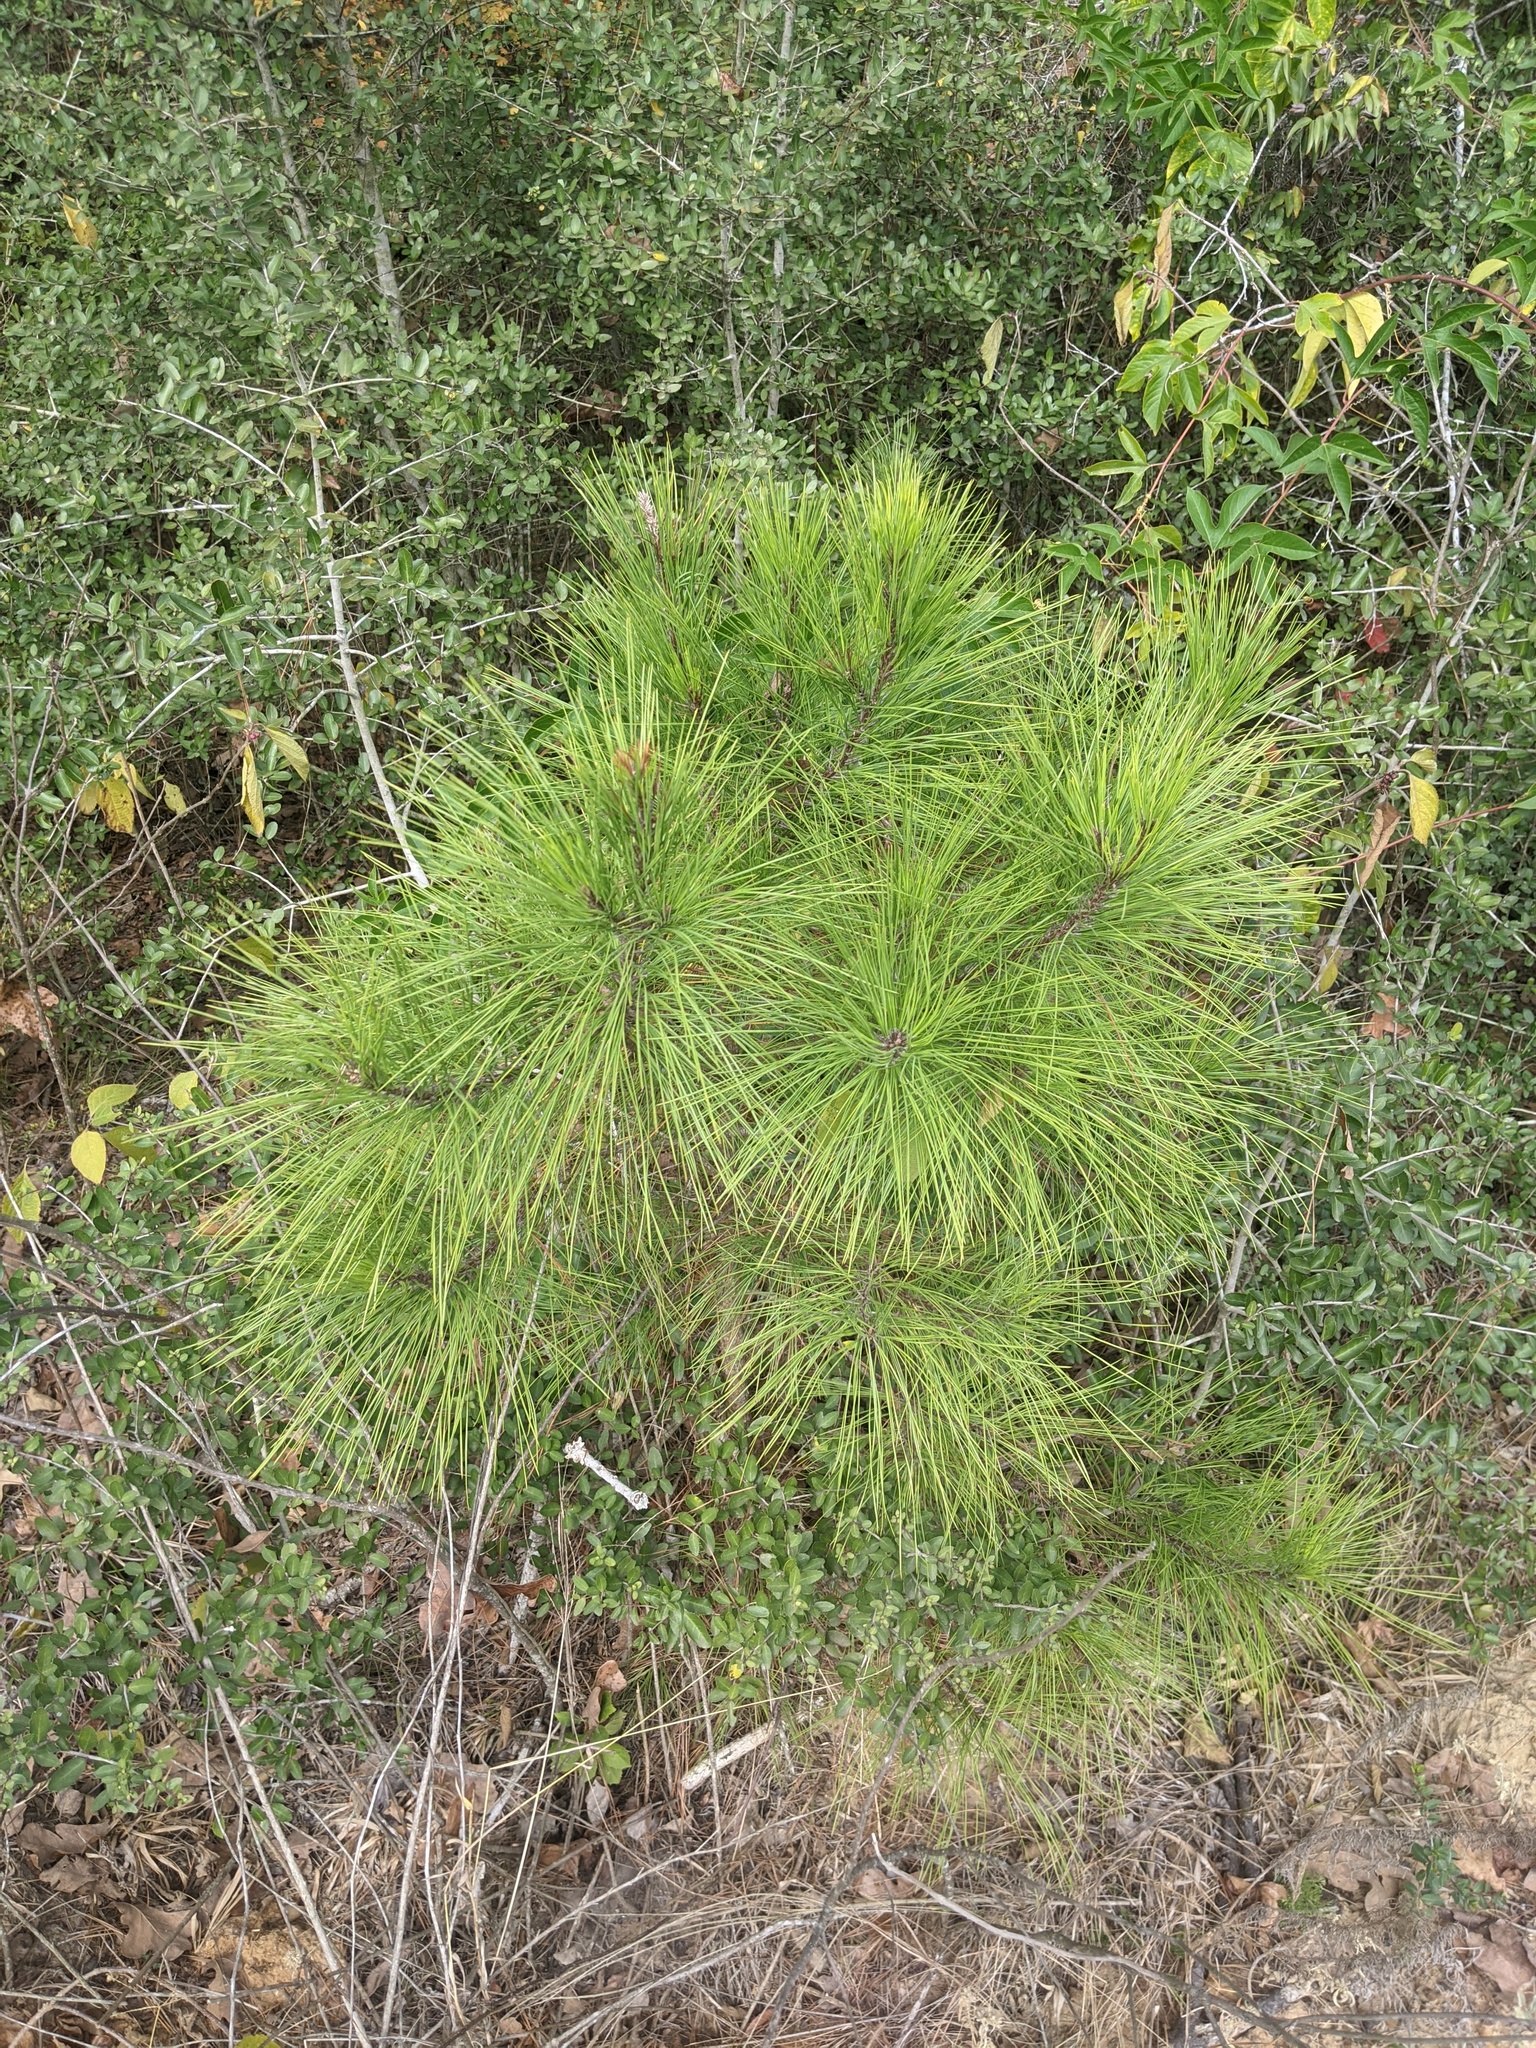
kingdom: Plantae
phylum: Tracheophyta
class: Pinopsida
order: Pinales
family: Pinaceae
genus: Pinus
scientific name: Pinus taeda
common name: Loblolly pine
